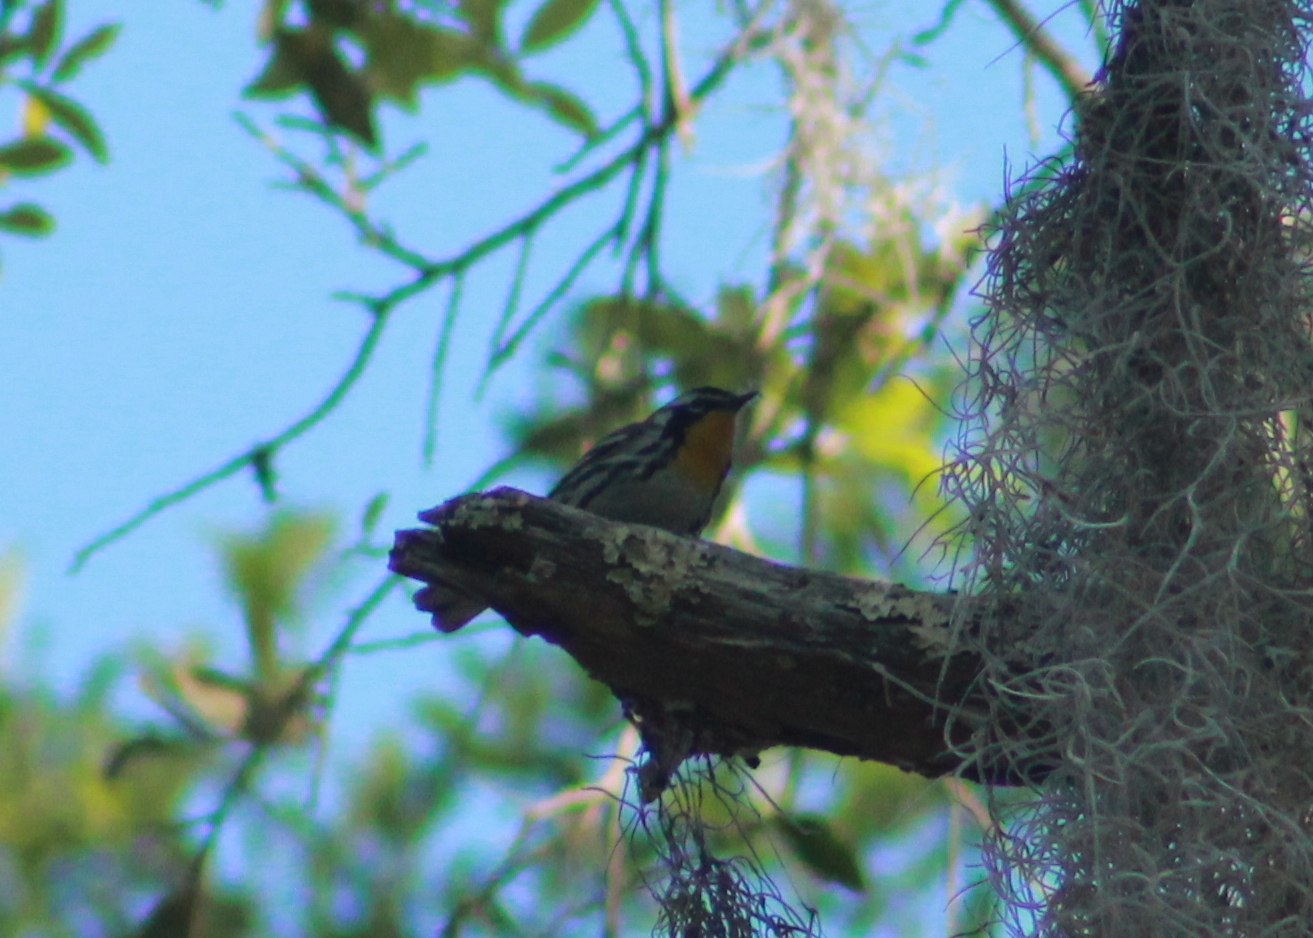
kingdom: Animalia
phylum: Chordata
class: Aves
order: Passeriformes
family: Parulidae
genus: Setophaga
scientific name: Setophaga dominica
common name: Yellow-throated warbler
